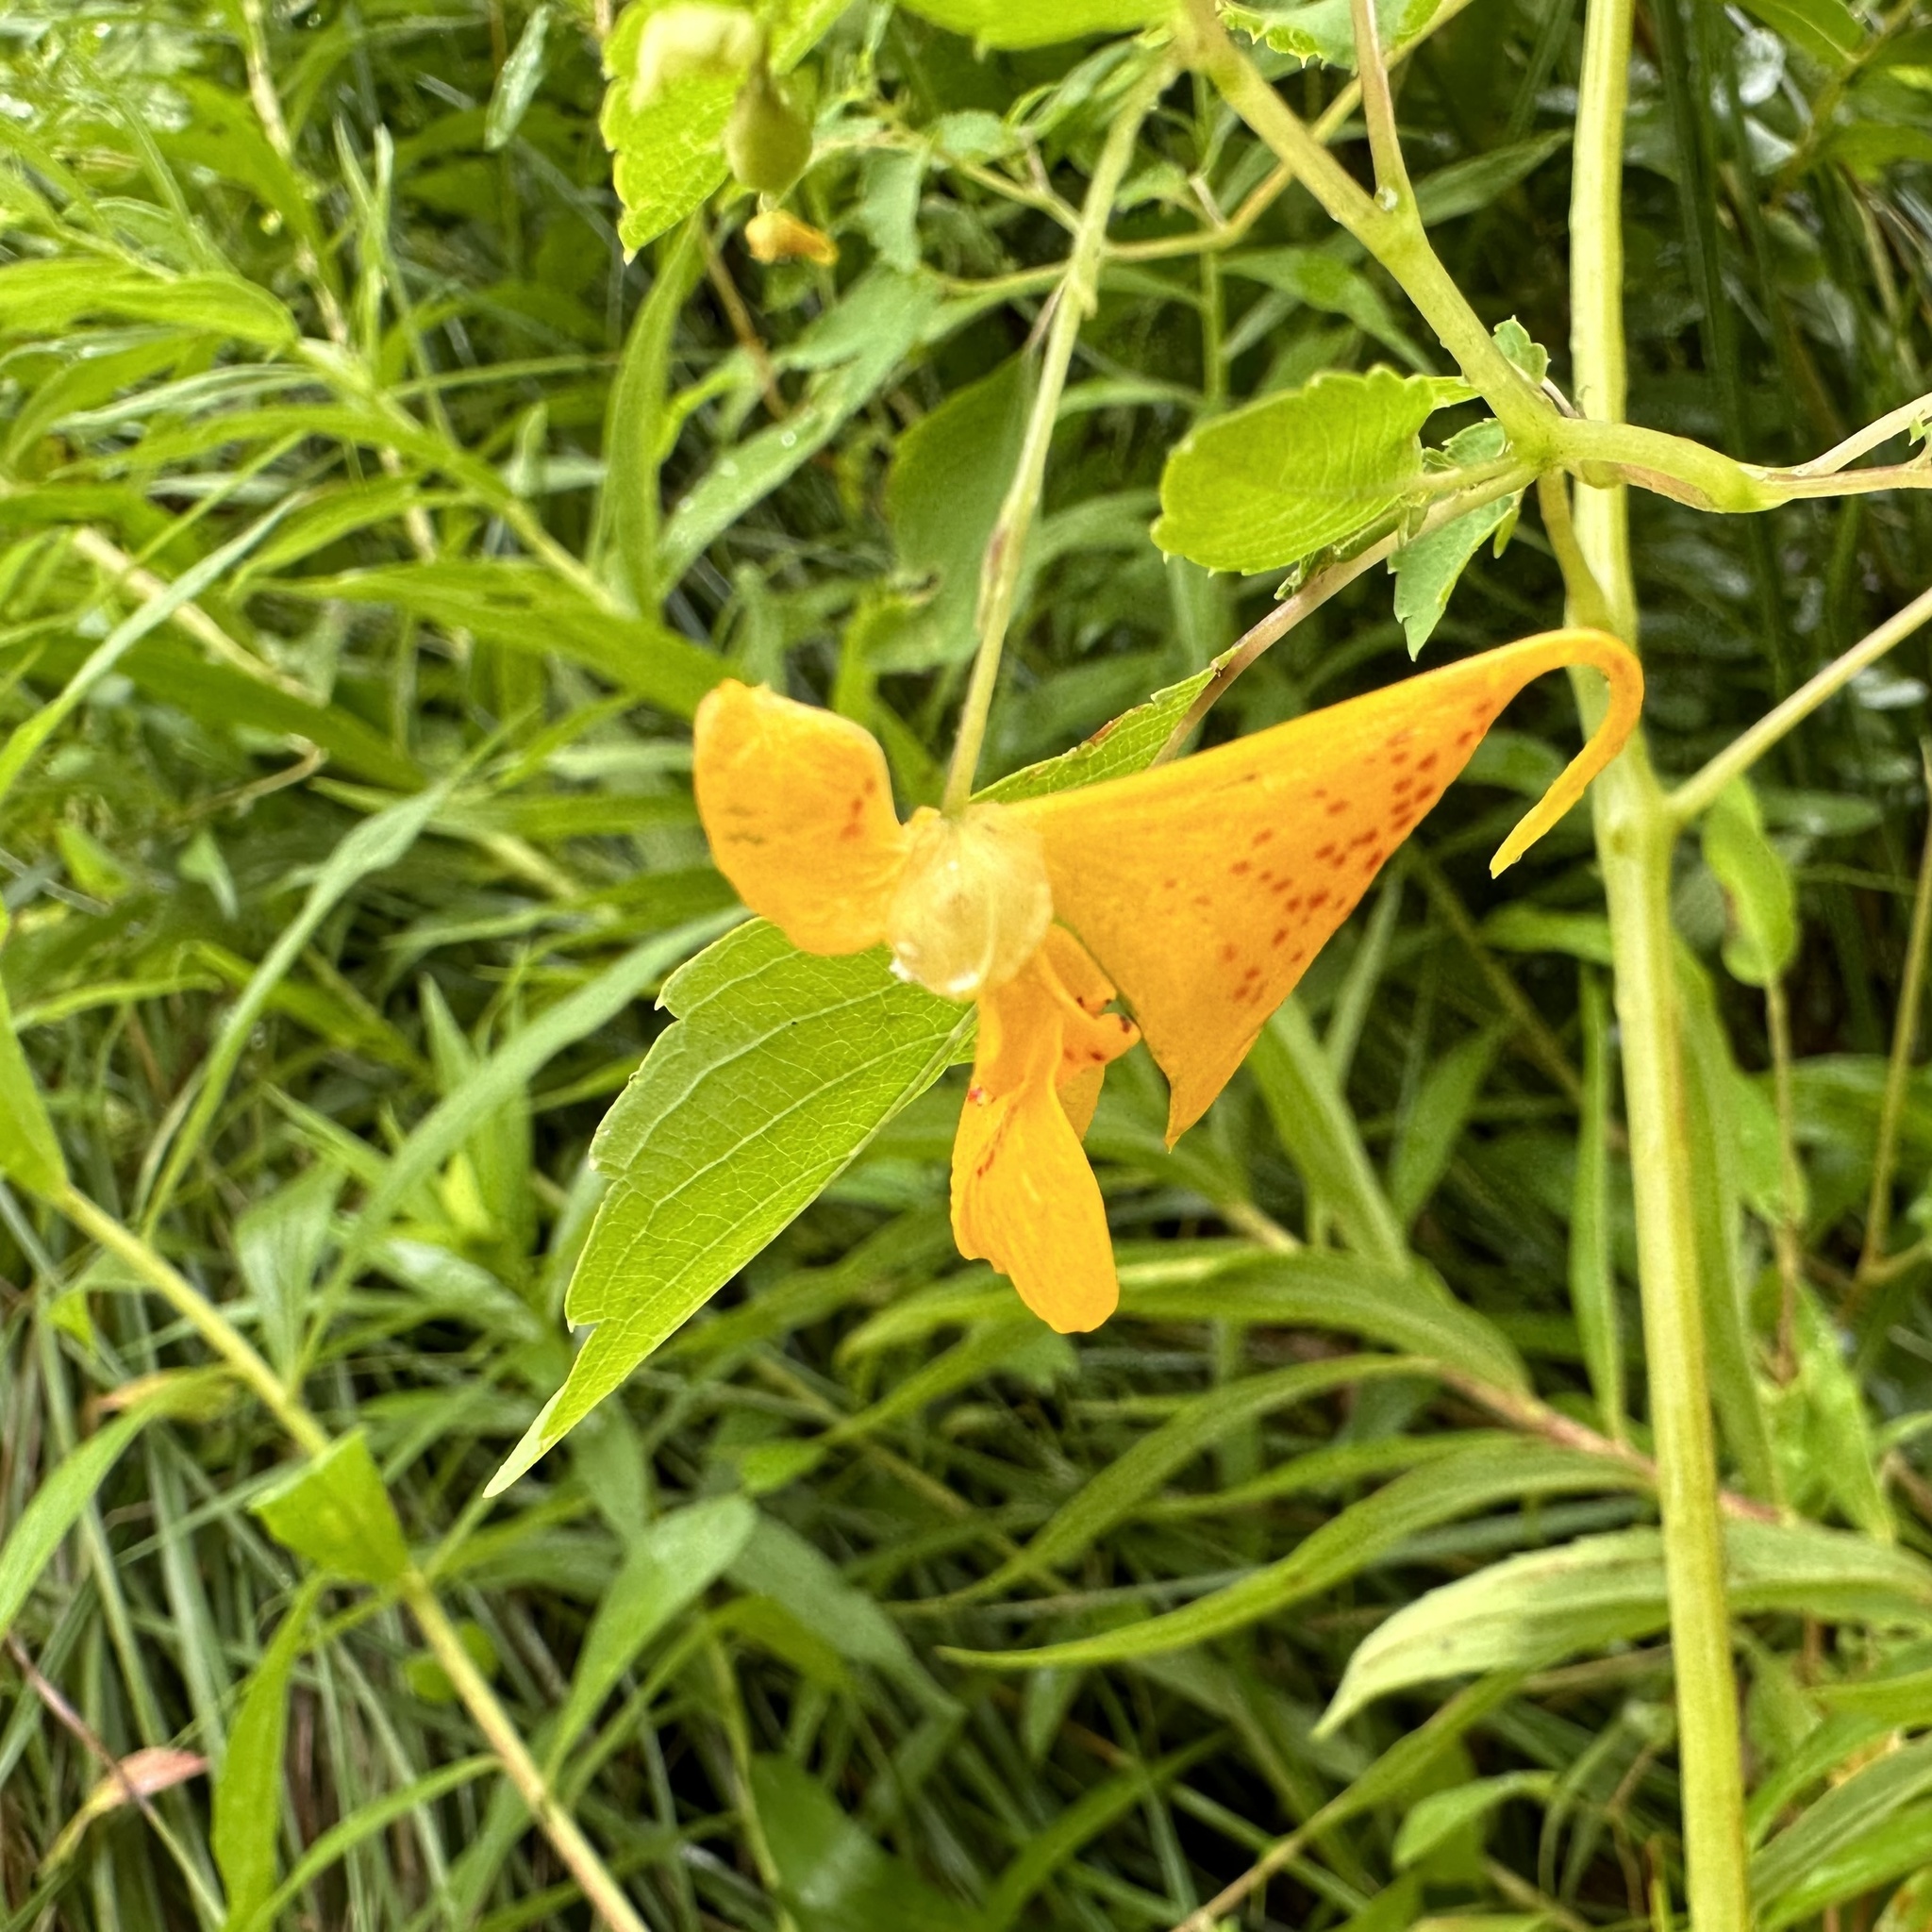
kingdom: Plantae
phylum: Tracheophyta
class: Magnoliopsida
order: Ericales
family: Balsaminaceae
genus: Impatiens
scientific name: Impatiens capensis
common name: Orange balsam
